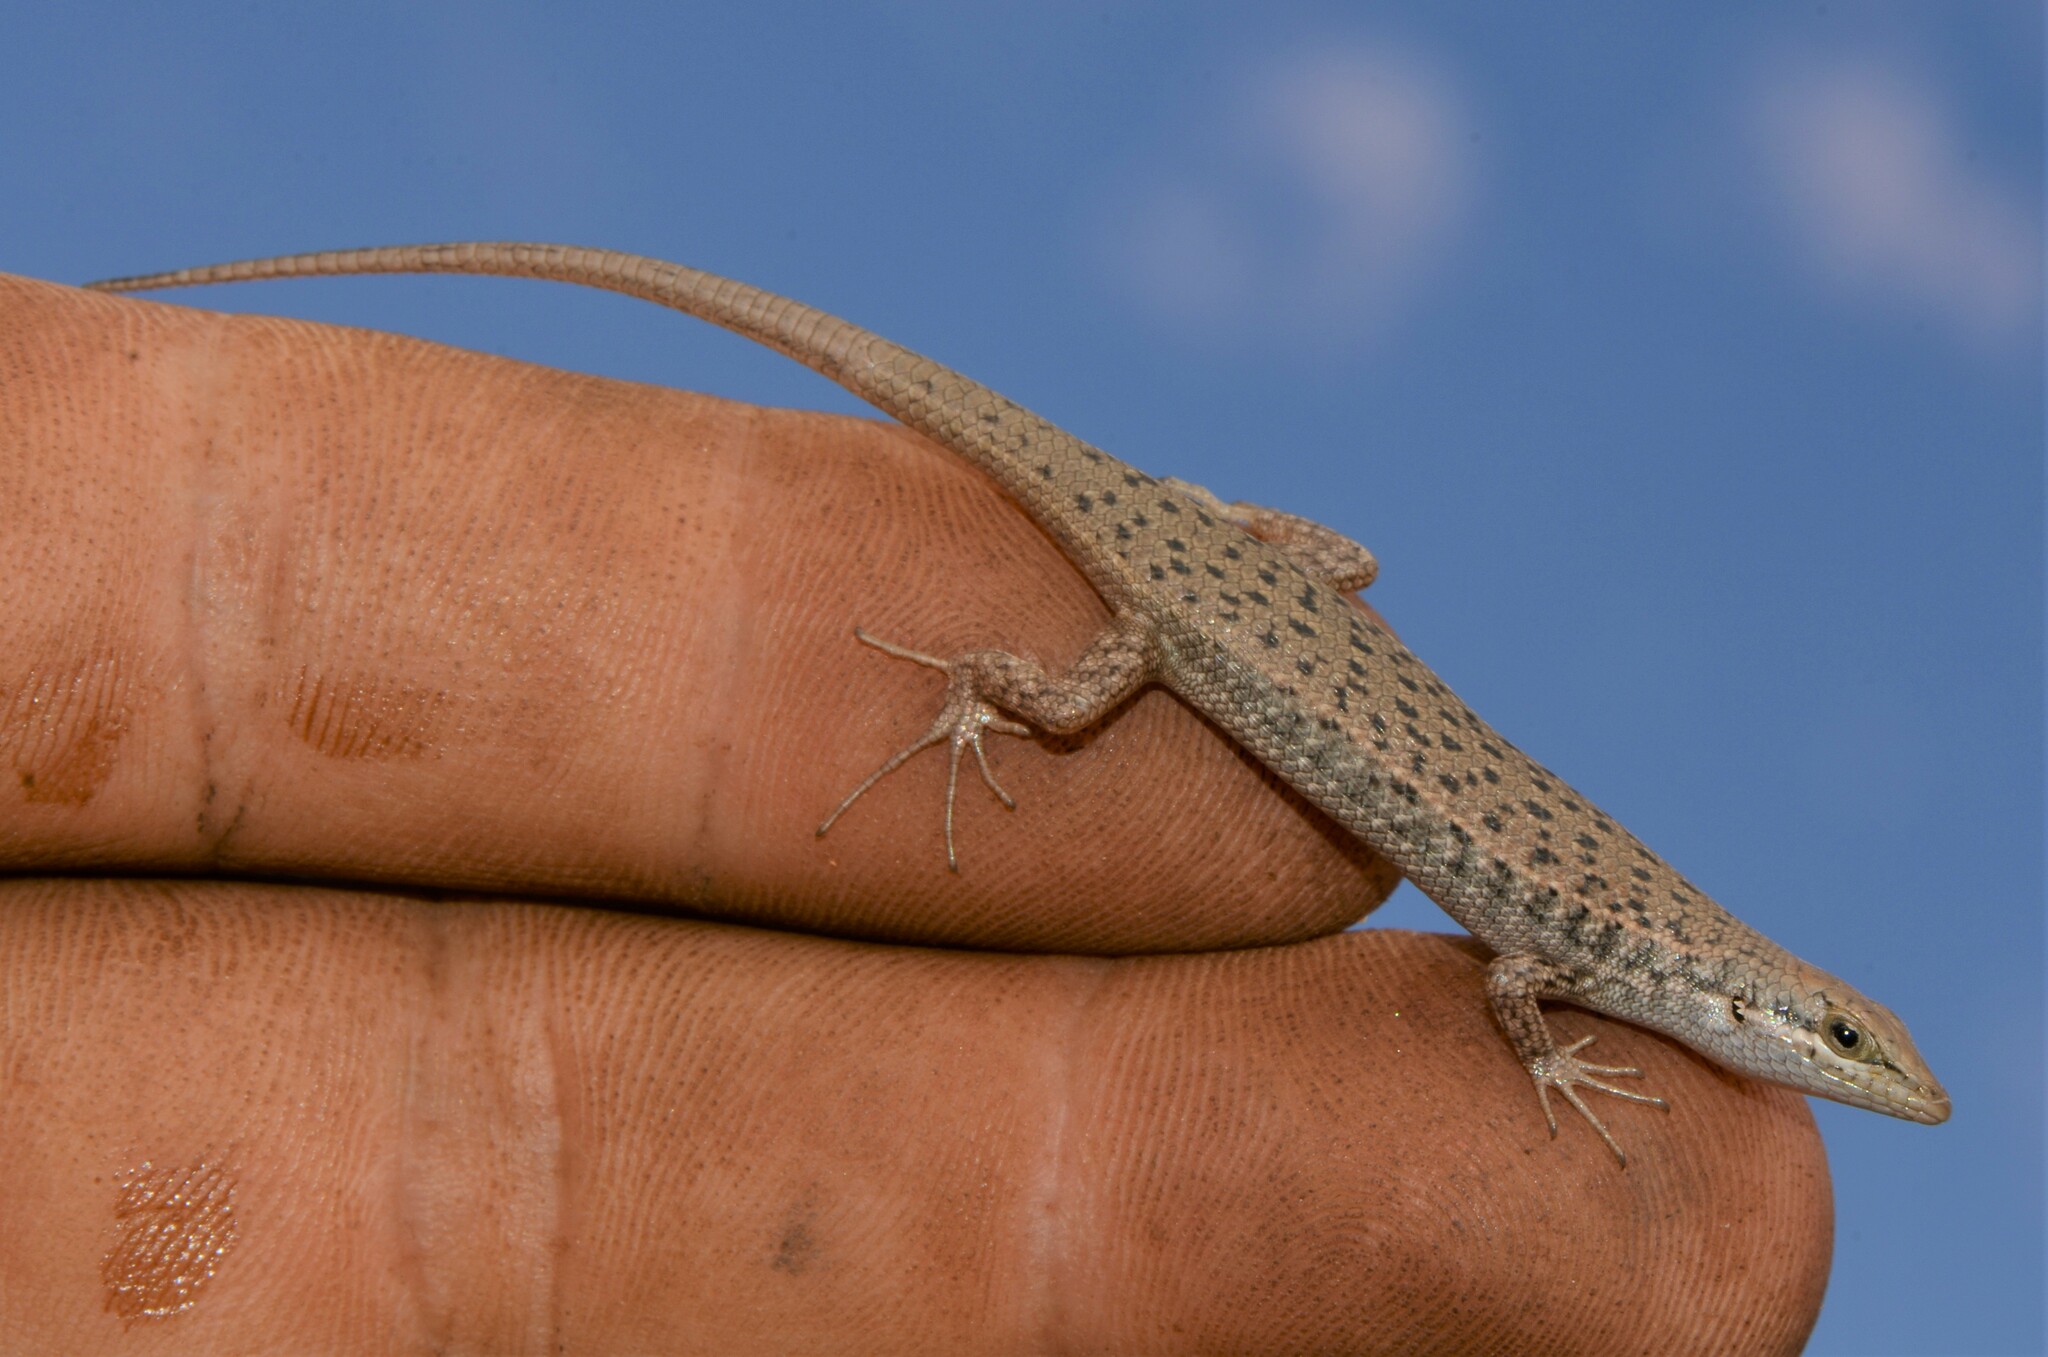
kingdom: Animalia
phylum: Chordata
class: Squamata
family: Scincidae
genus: Trachylepis
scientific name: Trachylepis variegata
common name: Variegated skink
